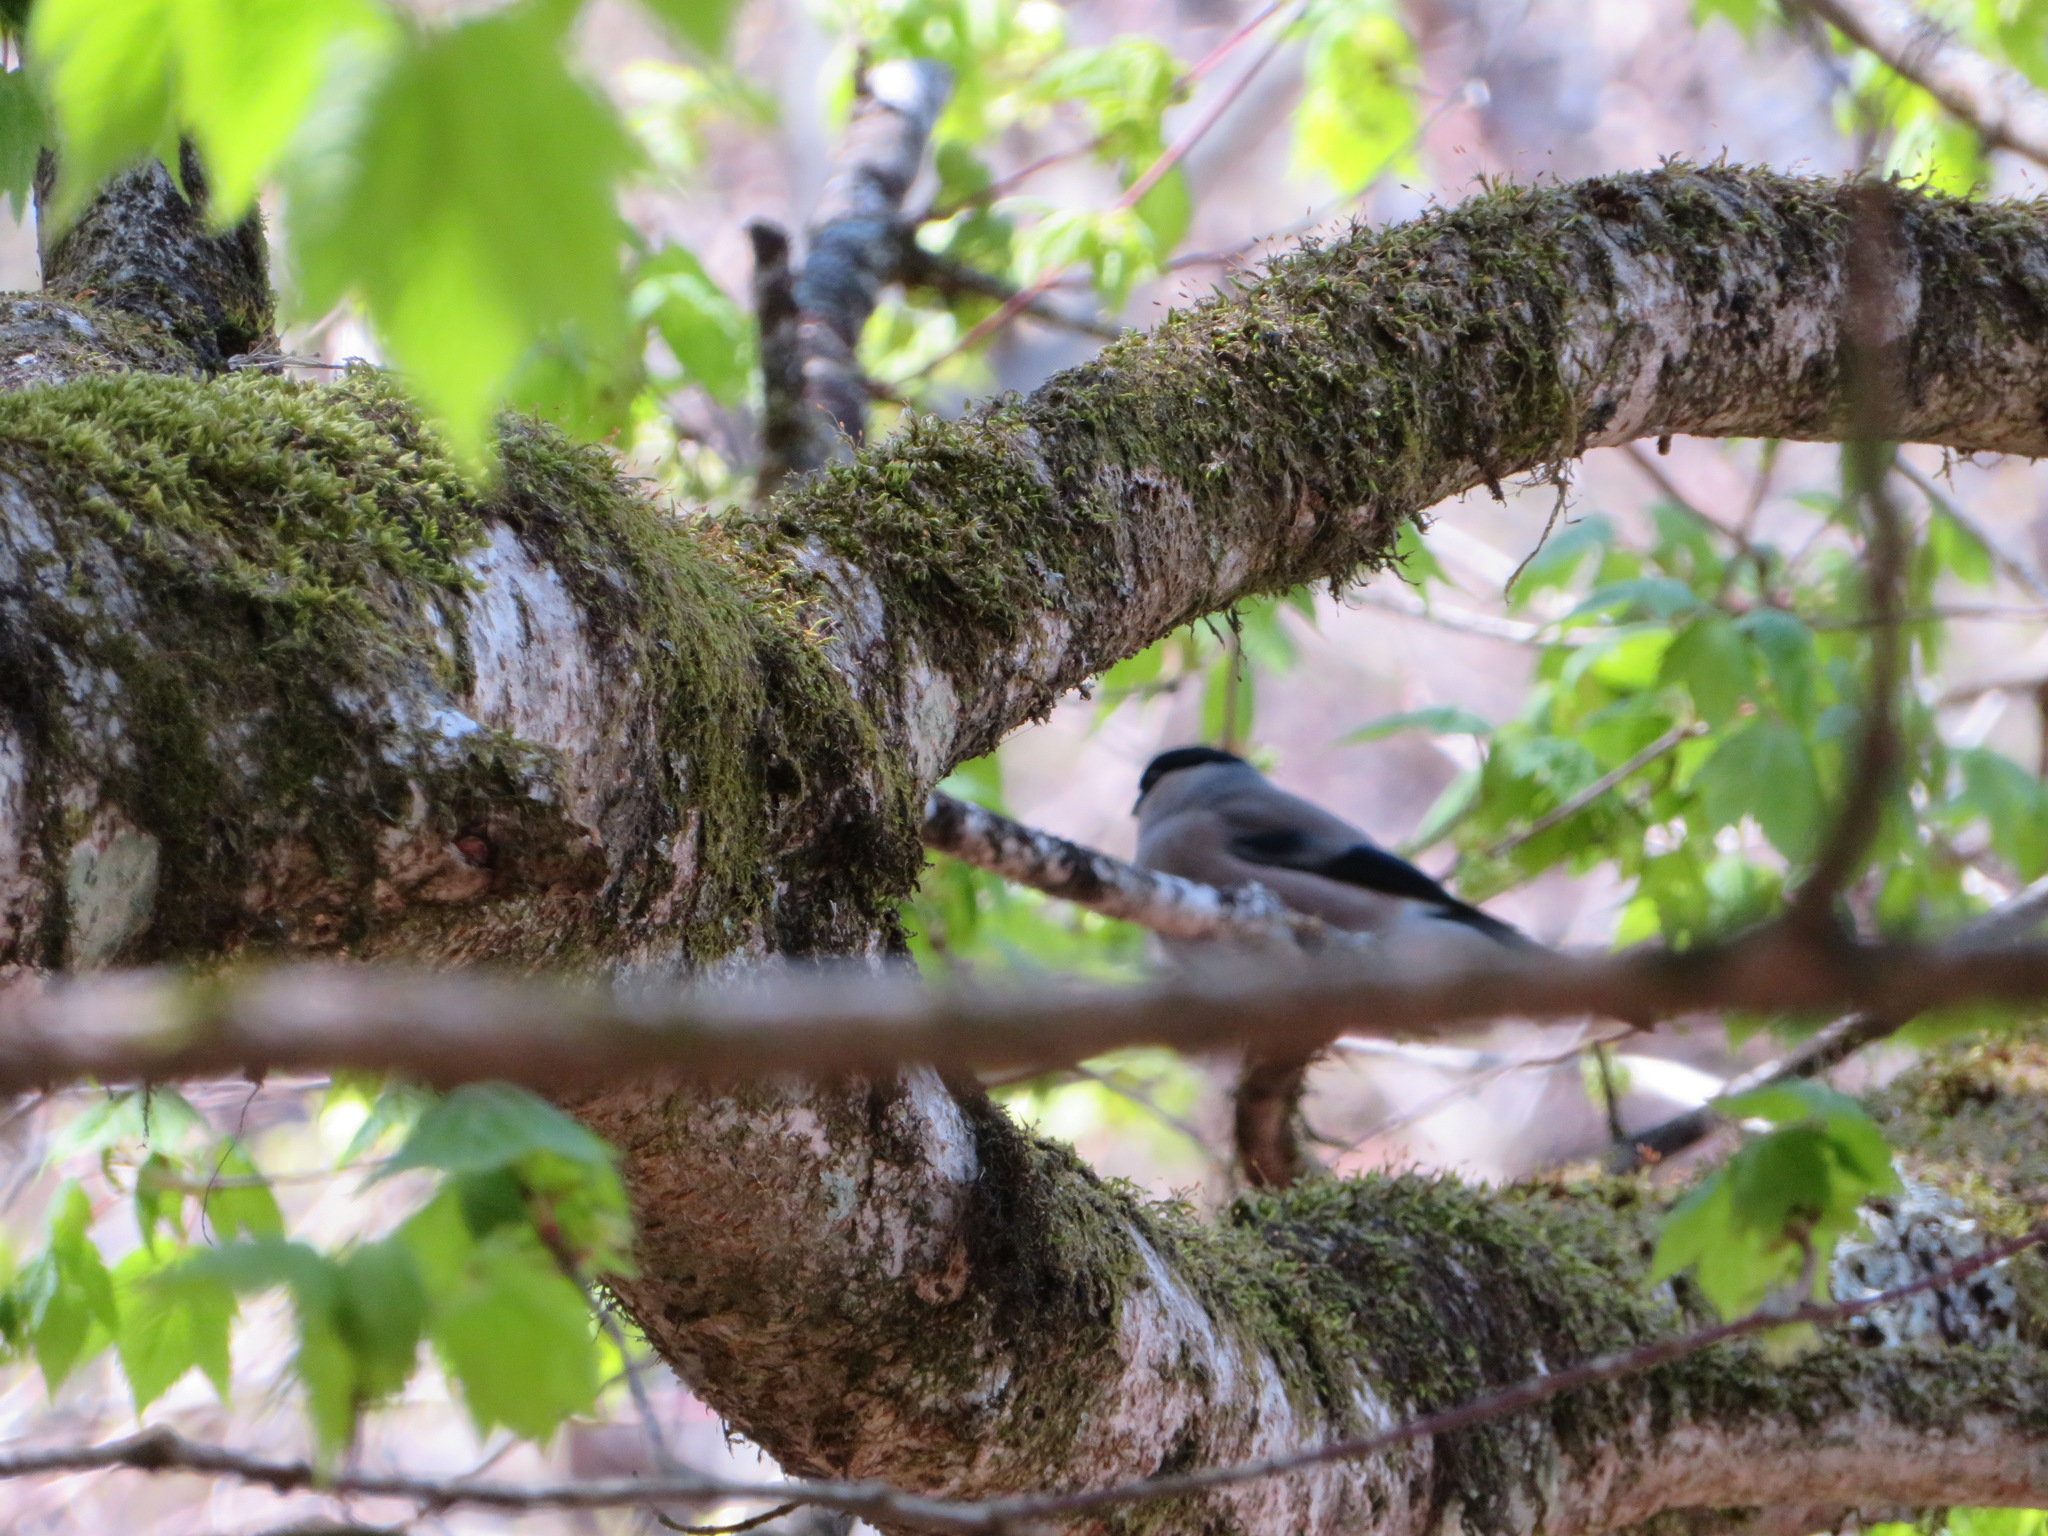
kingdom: Animalia
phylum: Chordata
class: Aves
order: Passeriformes
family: Fringillidae
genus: Pyrrhula
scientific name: Pyrrhula pyrrhula
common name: Eurasian bullfinch
